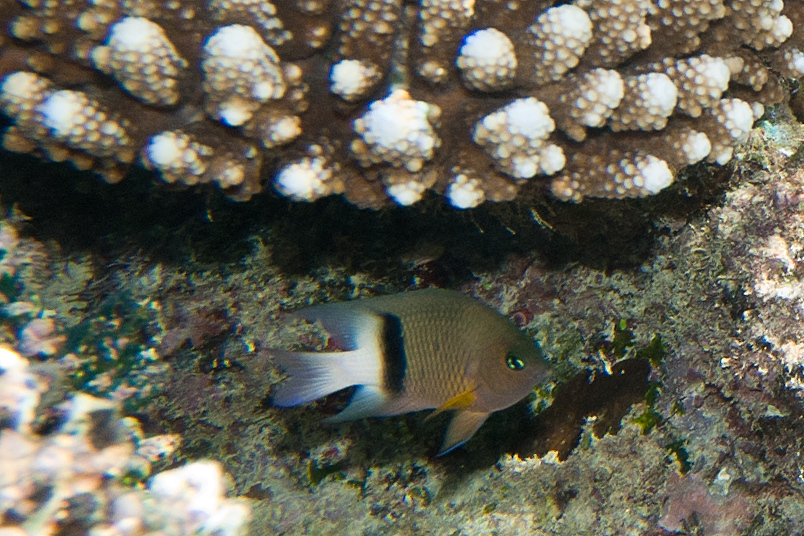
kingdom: Animalia
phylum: Chordata
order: Perciformes
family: Pomacentridae
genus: Plectroglyphidodon
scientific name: Plectroglyphidodon dickii
